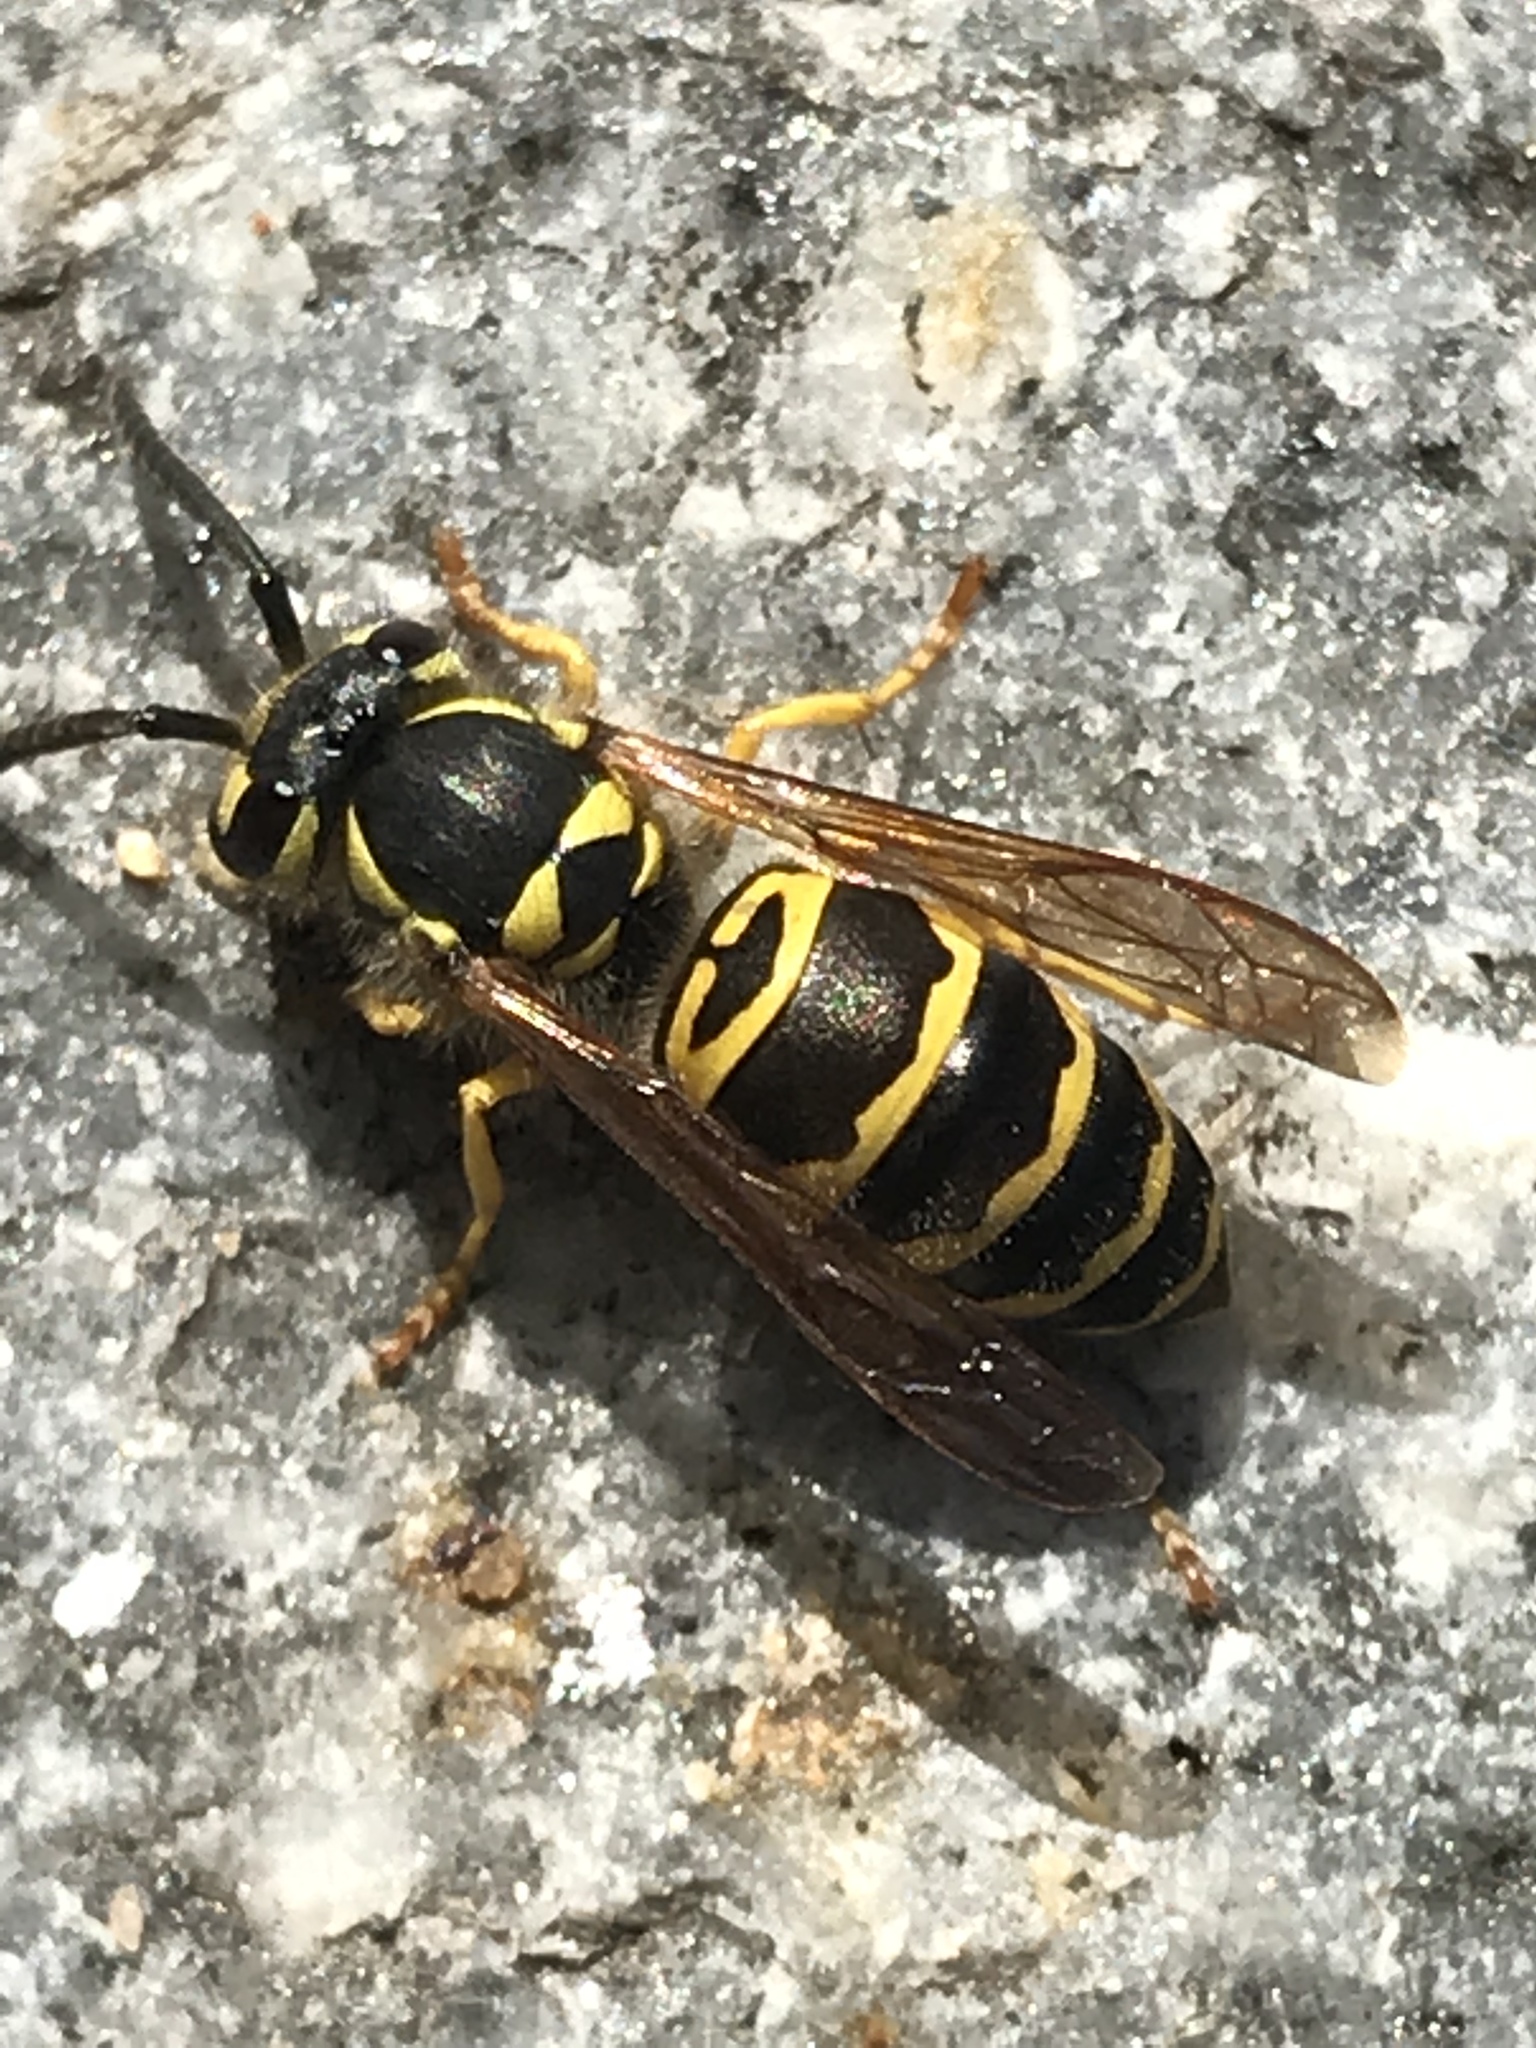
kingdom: Animalia
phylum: Arthropoda
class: Insecta
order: Hymenoptera
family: Vespidae
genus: Vespula
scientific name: Vespula maculifrons
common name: Eastern yellowjacket
